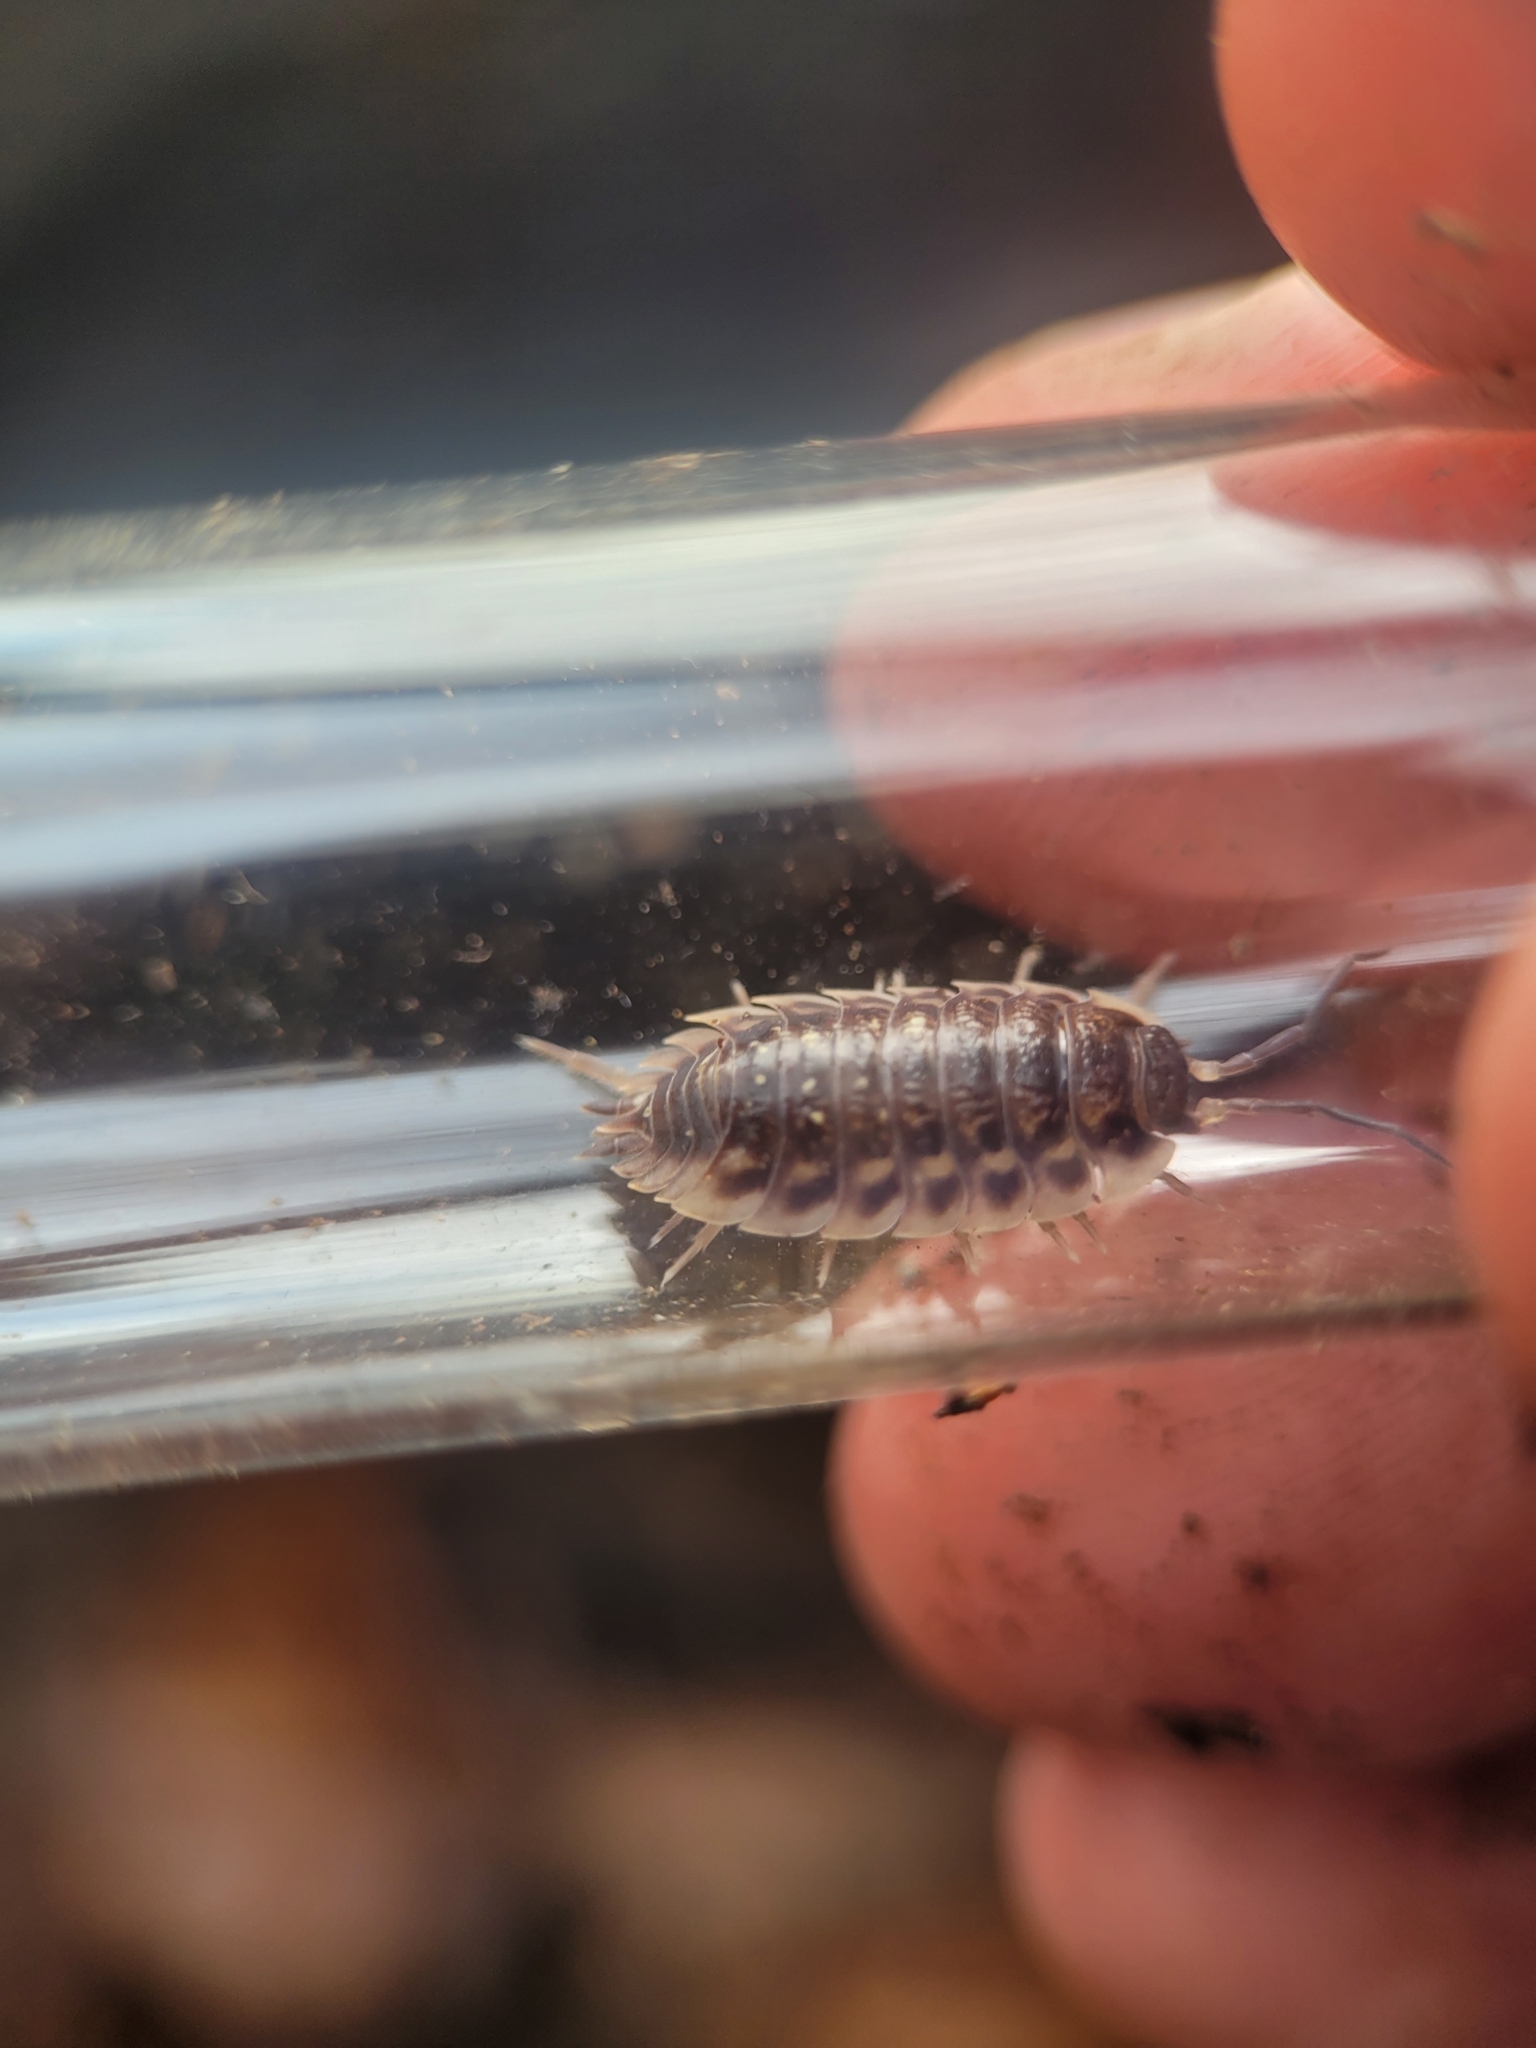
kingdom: Animalia
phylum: Arthropoda
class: Malacostraca
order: Isopoda
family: Oniscidae
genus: Oniscus
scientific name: Oniscus asellus
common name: Common shiny woodlouse
